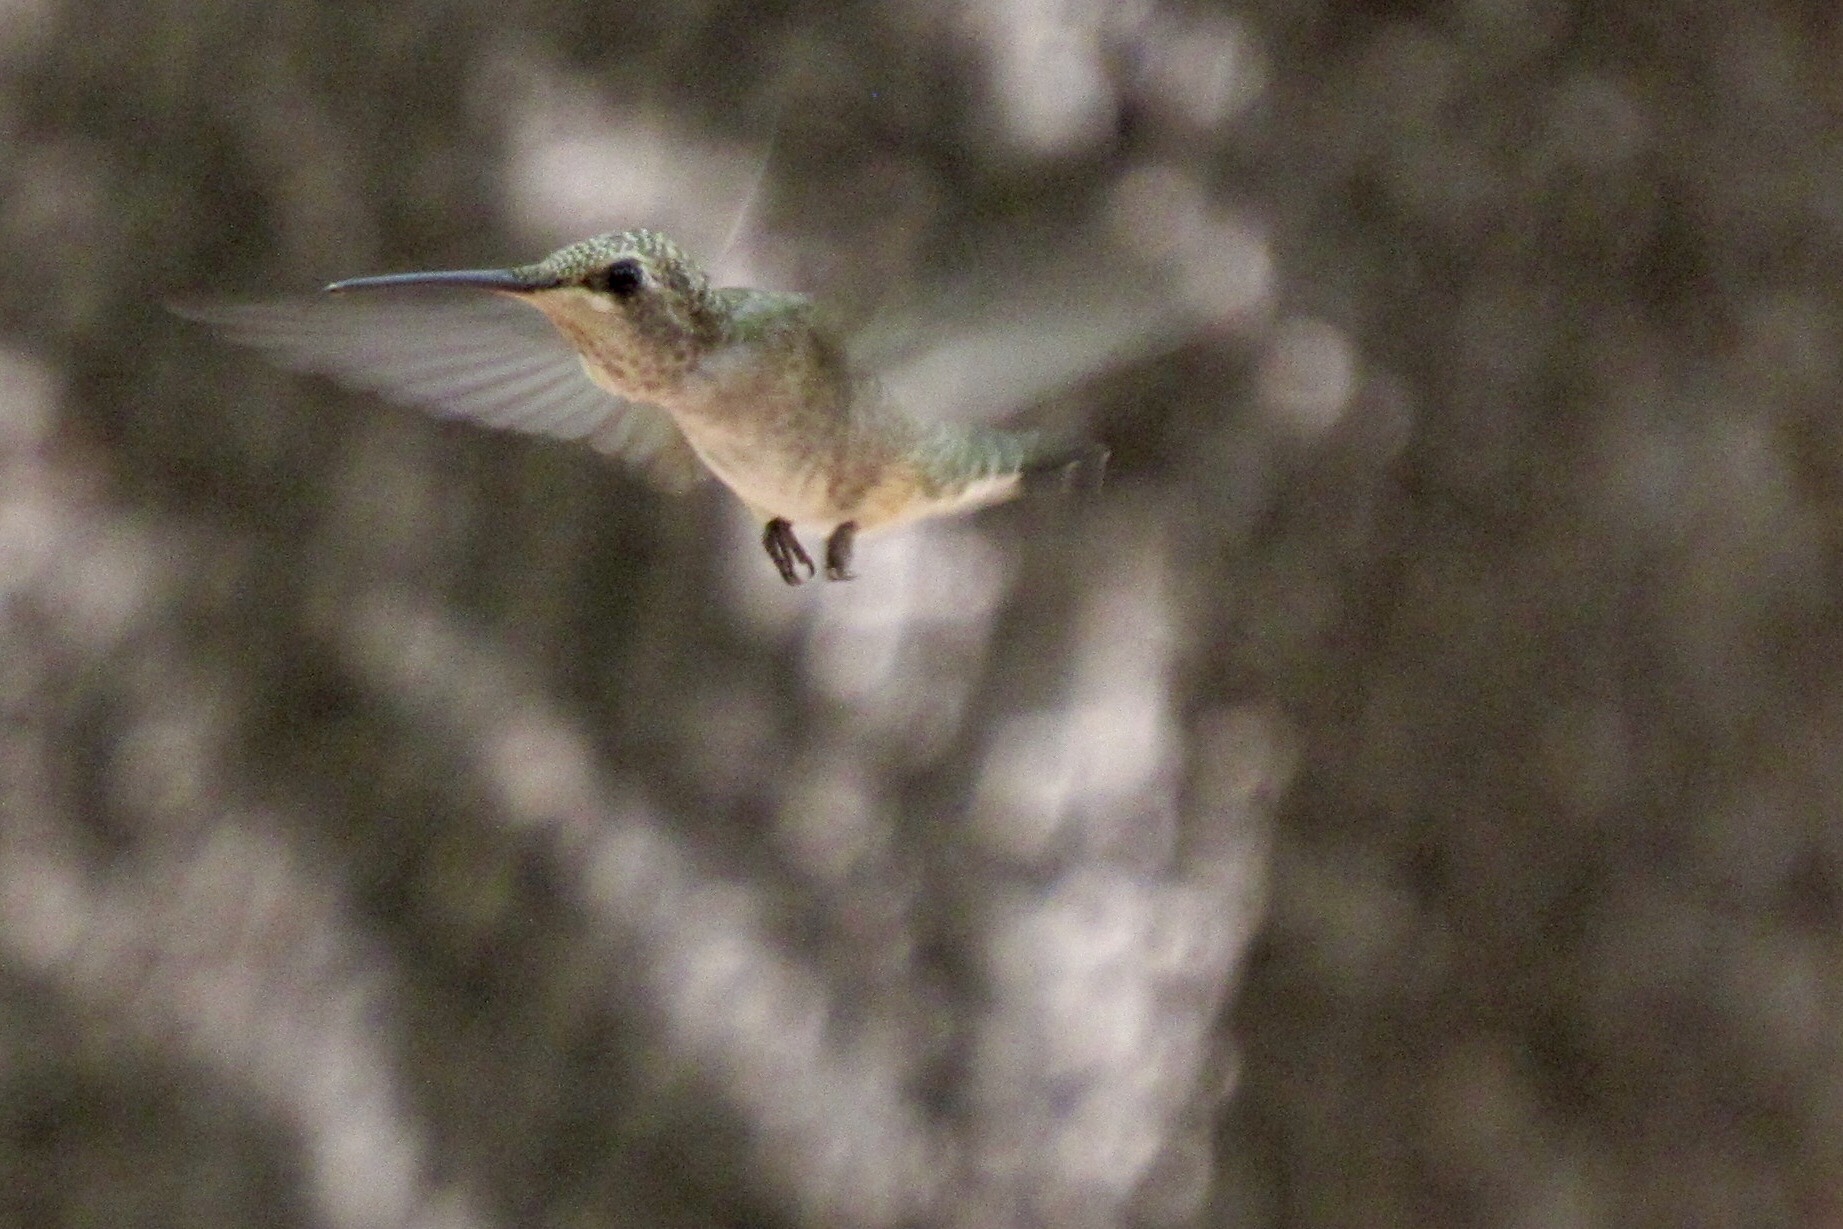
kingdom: Animalia
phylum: Chordata
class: Aves
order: Apodiformes
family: Trochilidae
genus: Archilochus
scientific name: Archilochus alexandri
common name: Black-chinned hummingbird
